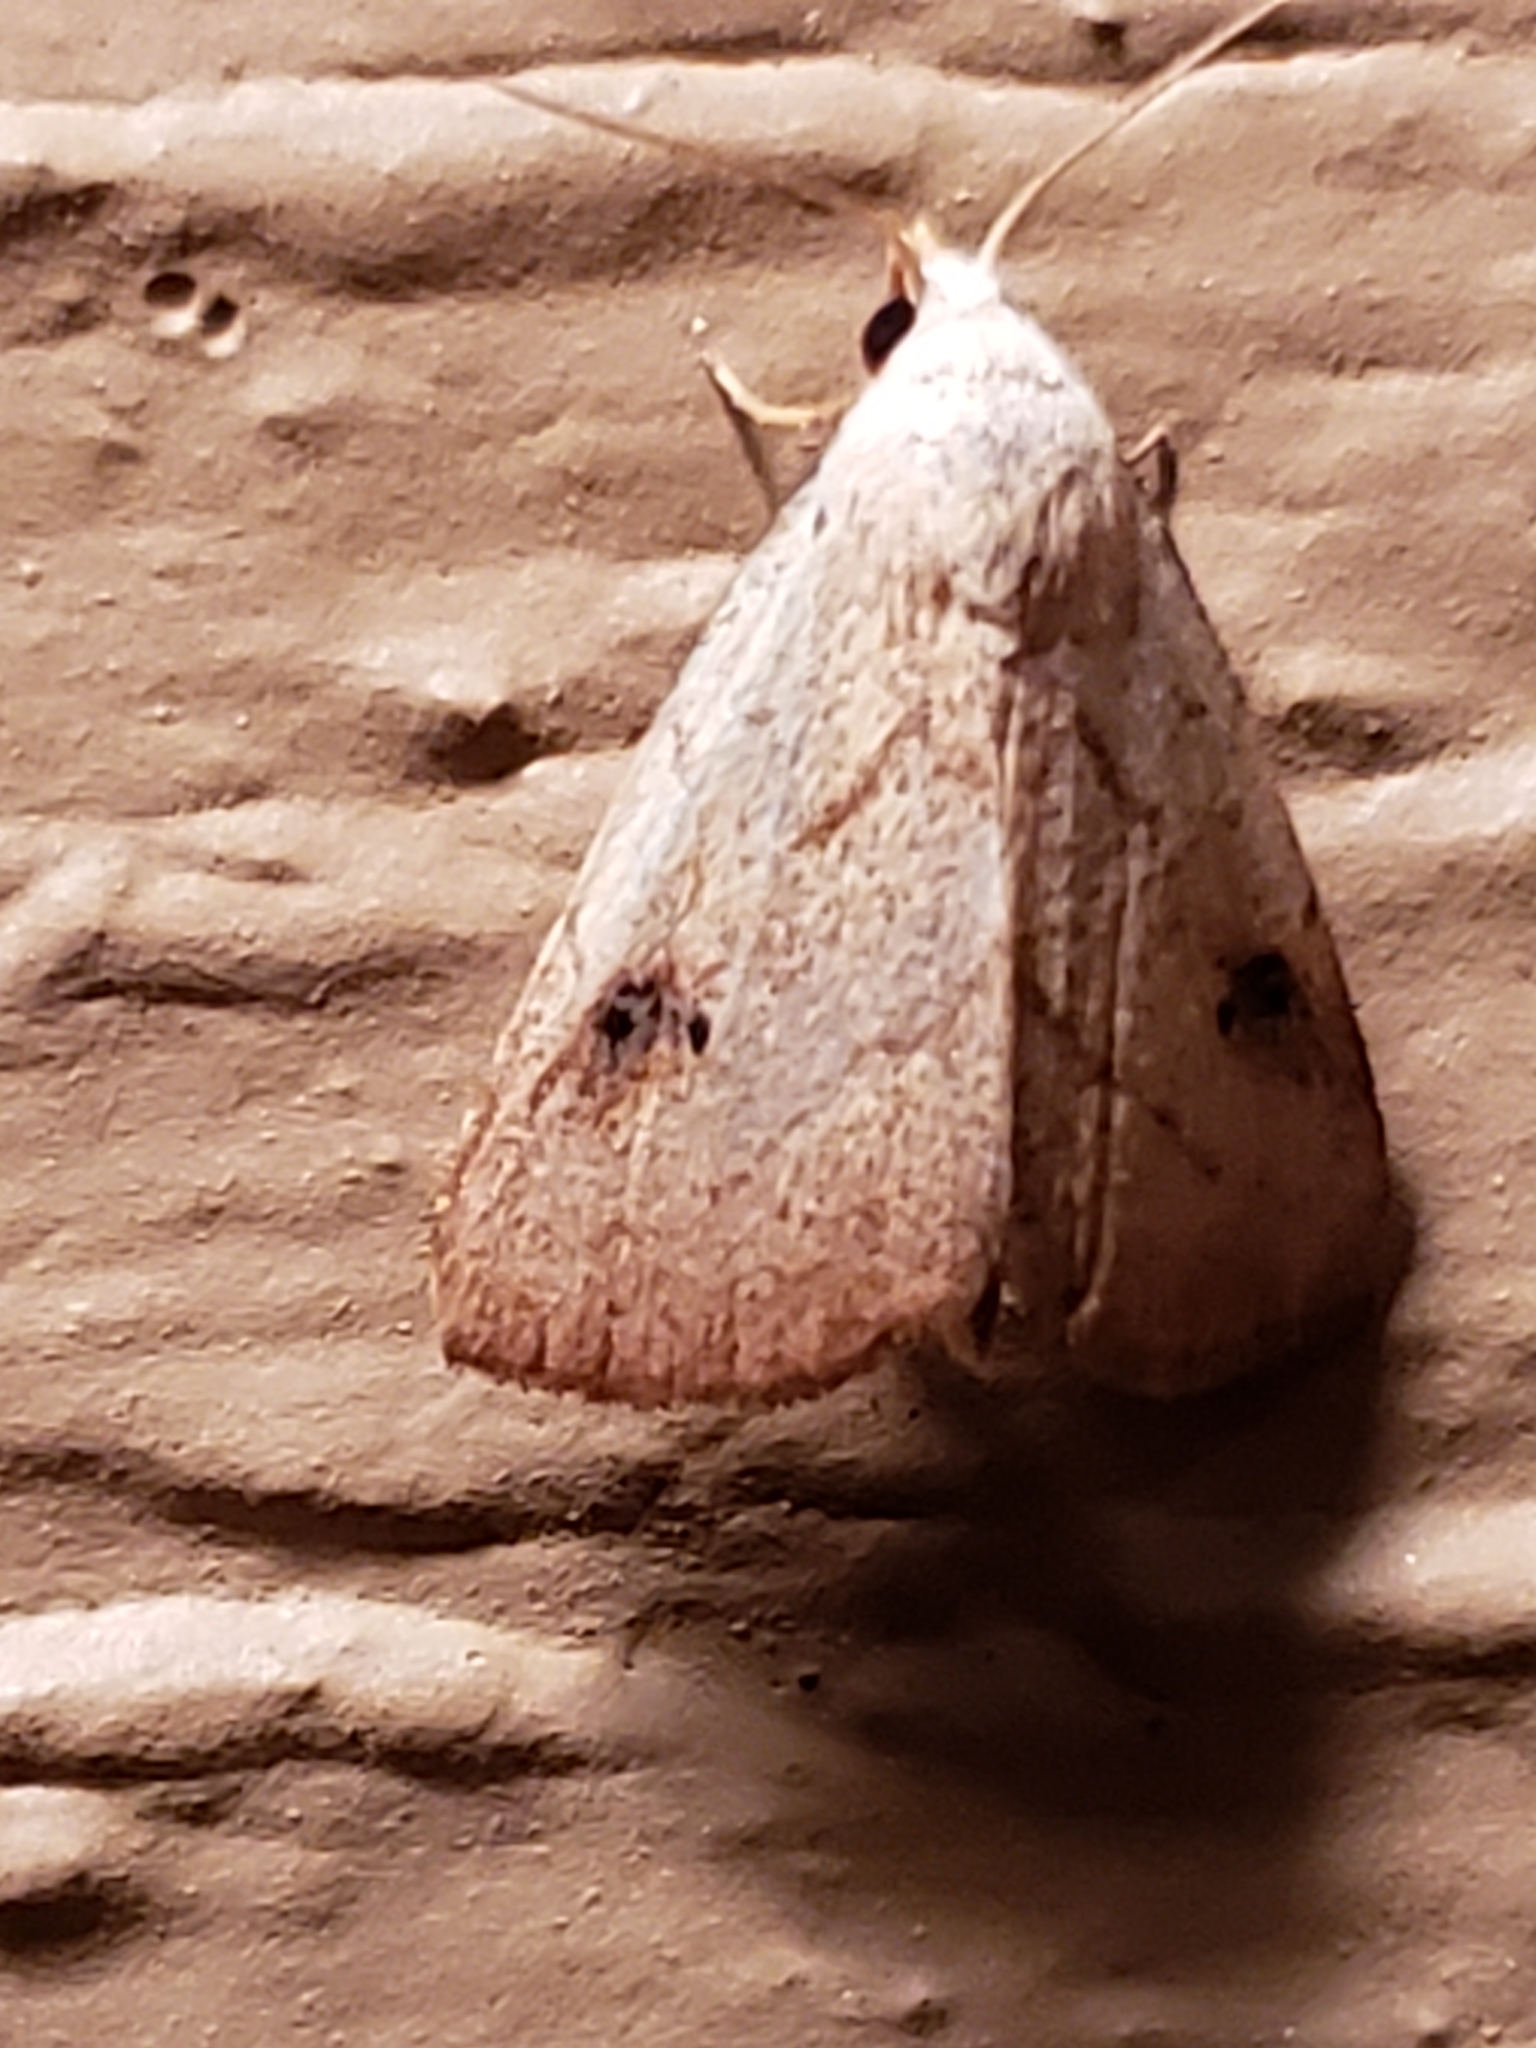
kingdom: Animalia
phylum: Arthropoda
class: Insecta
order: Lepidoptera
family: Erebidae
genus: Rivula
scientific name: Rivula propinqualis
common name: Spotted grass moth
